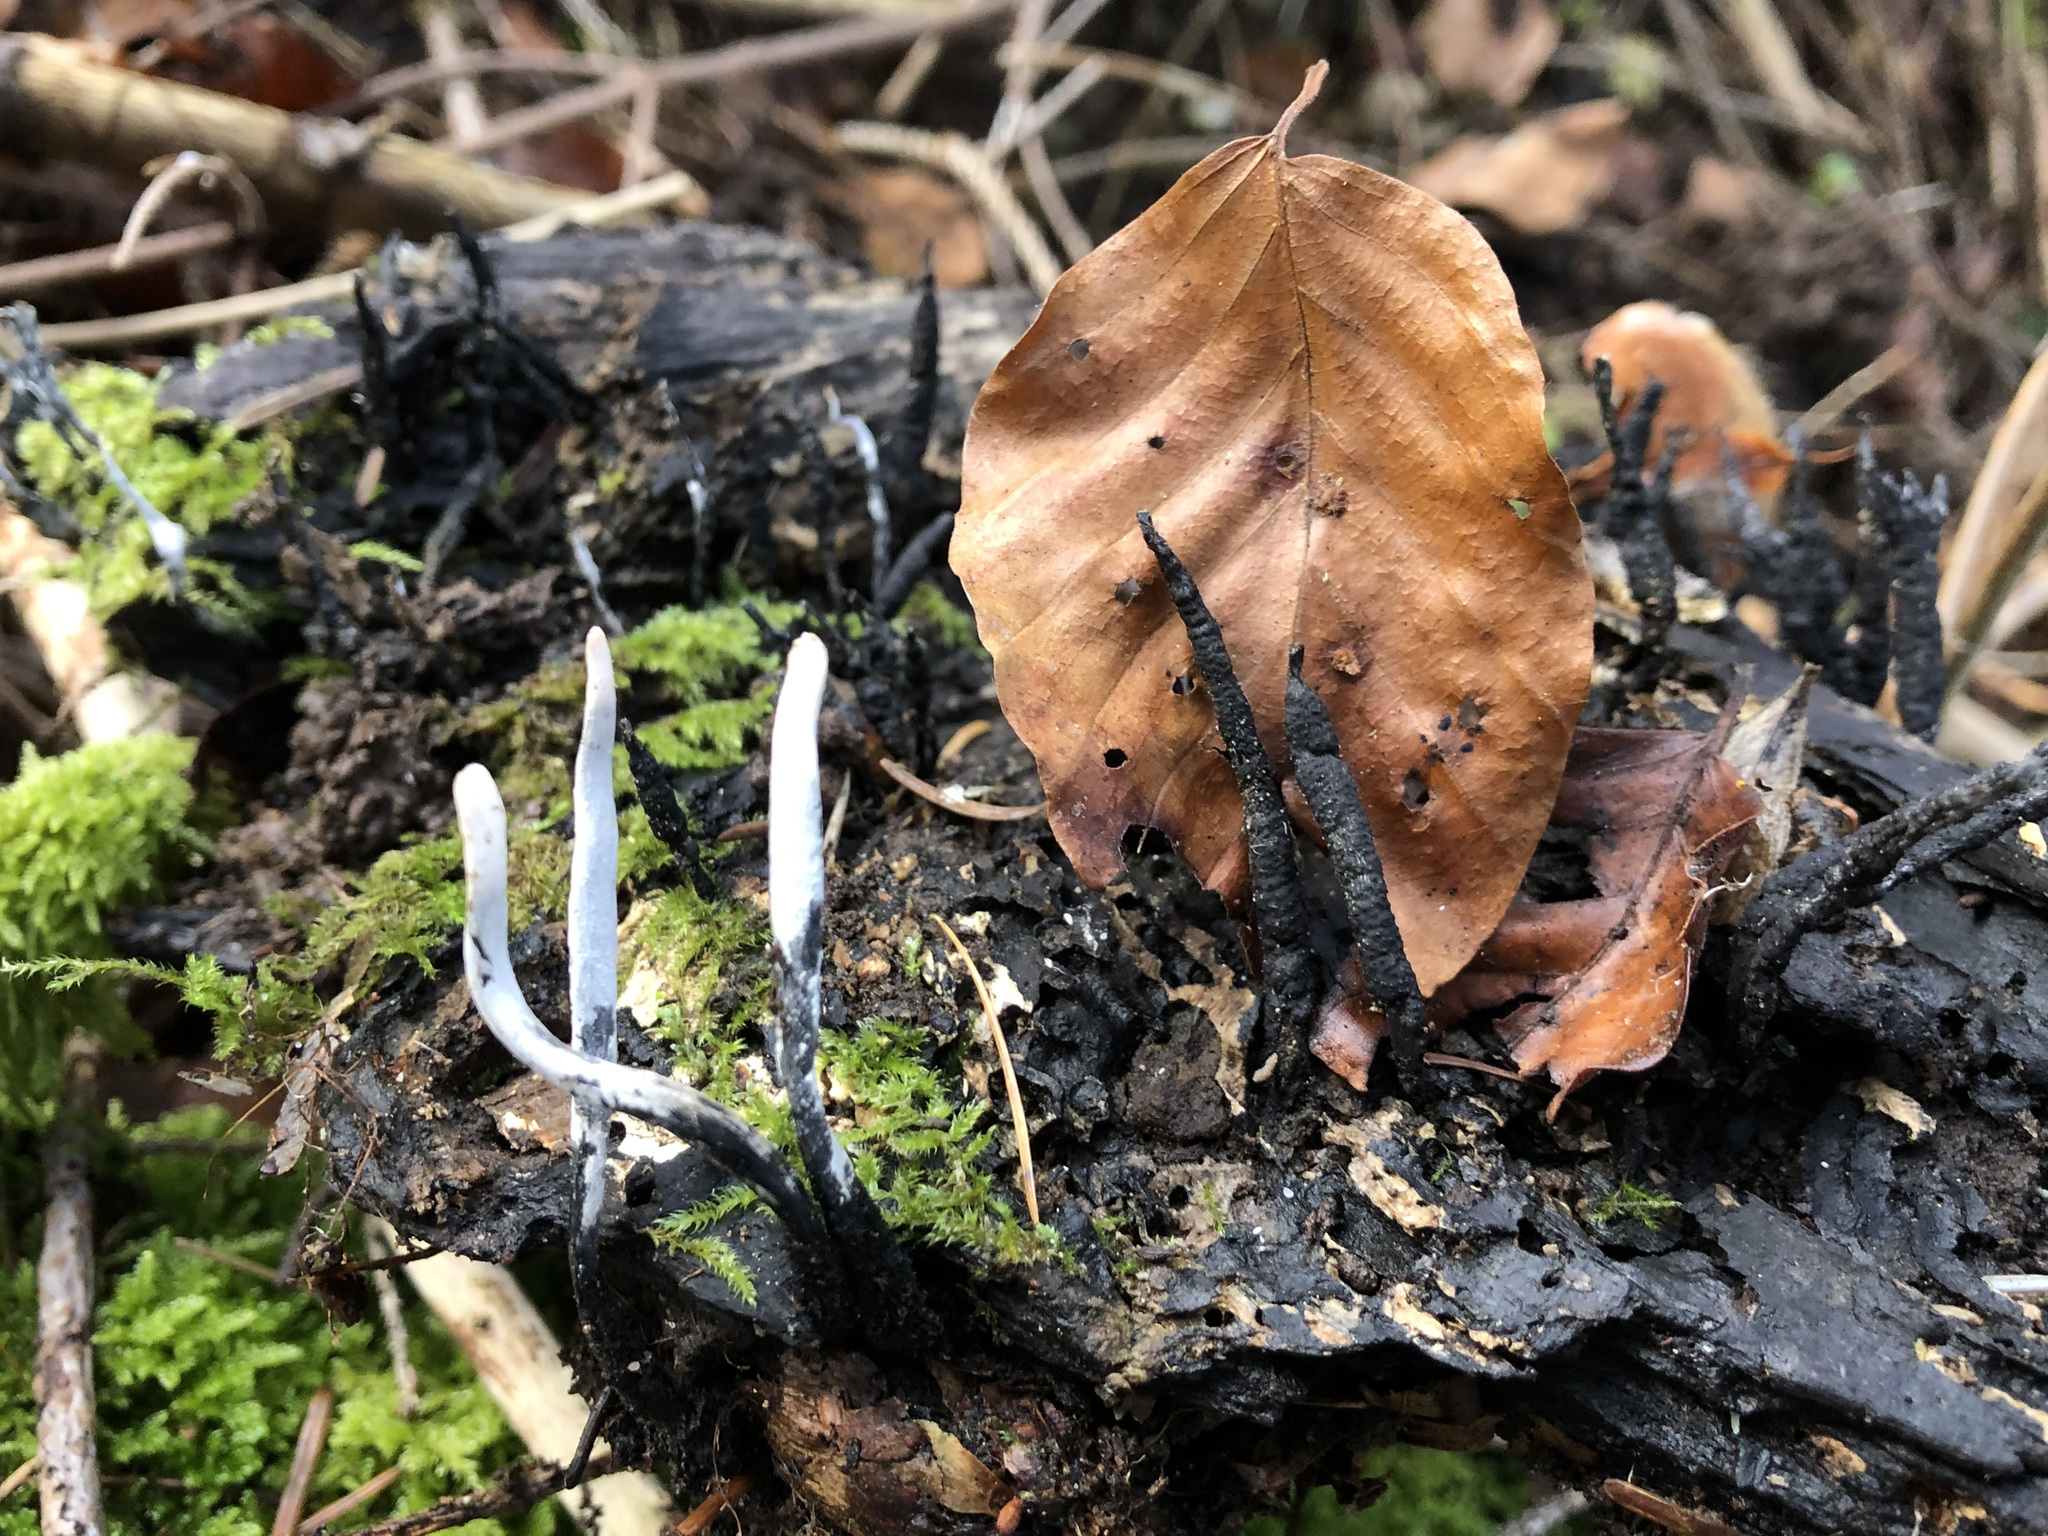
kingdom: Fungi
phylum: Ascomycota
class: Sordariomycetes
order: Xylariales
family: Xylariaceae
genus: Xylaria
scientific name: Xylaria hypoxylon
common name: Candle-snuff fungus
